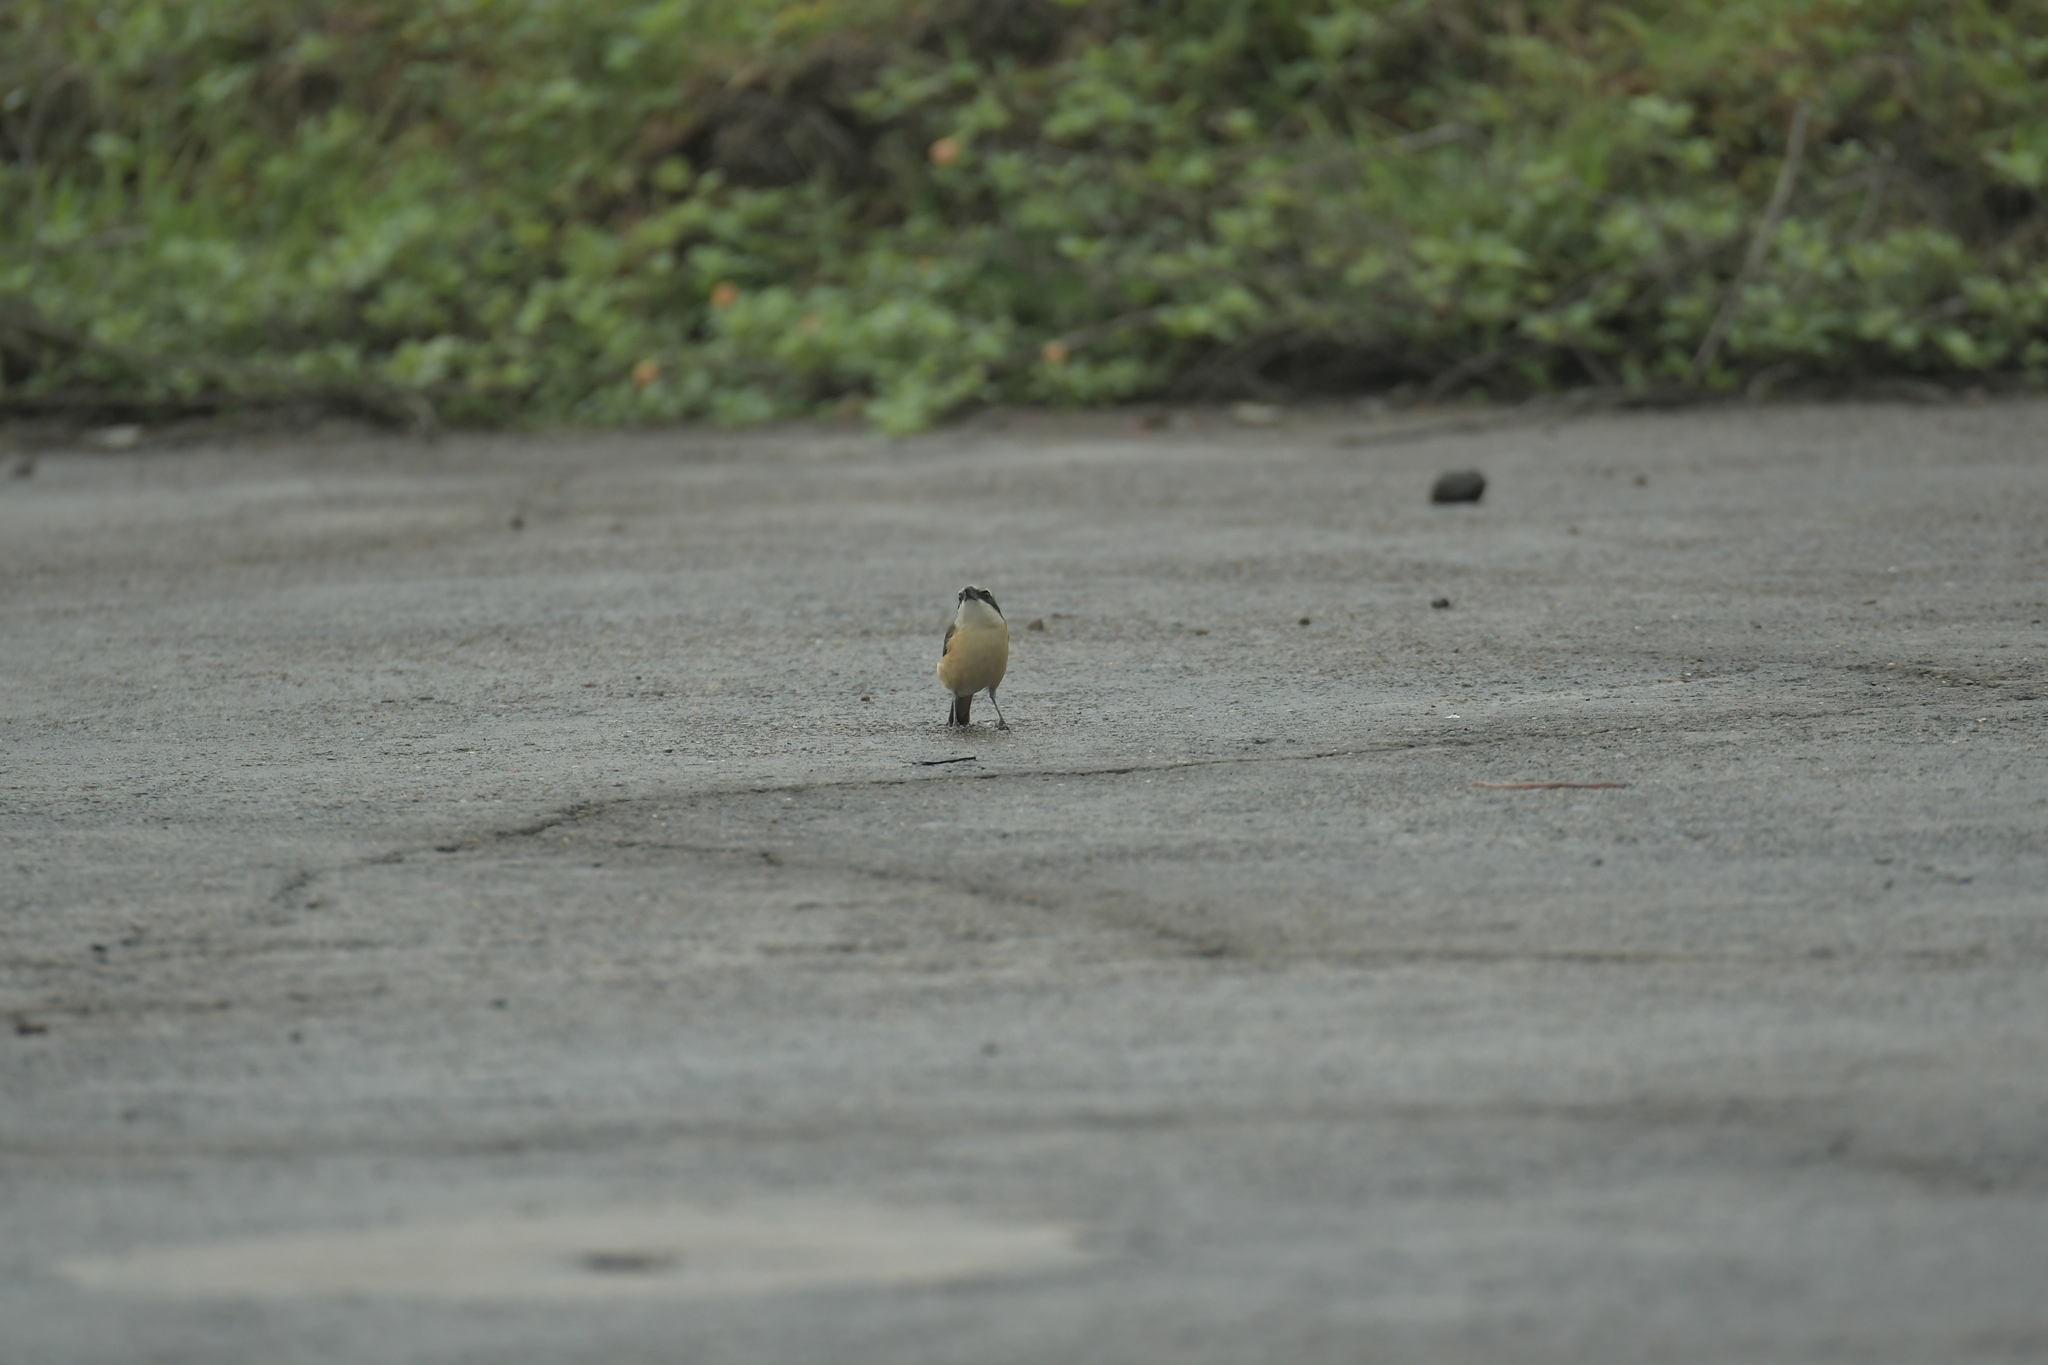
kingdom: Animalia
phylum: Chordata
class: Aves
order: Passeriformes
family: Laniidae
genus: Lanius
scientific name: Lanius cristatus
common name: Brown shrike
